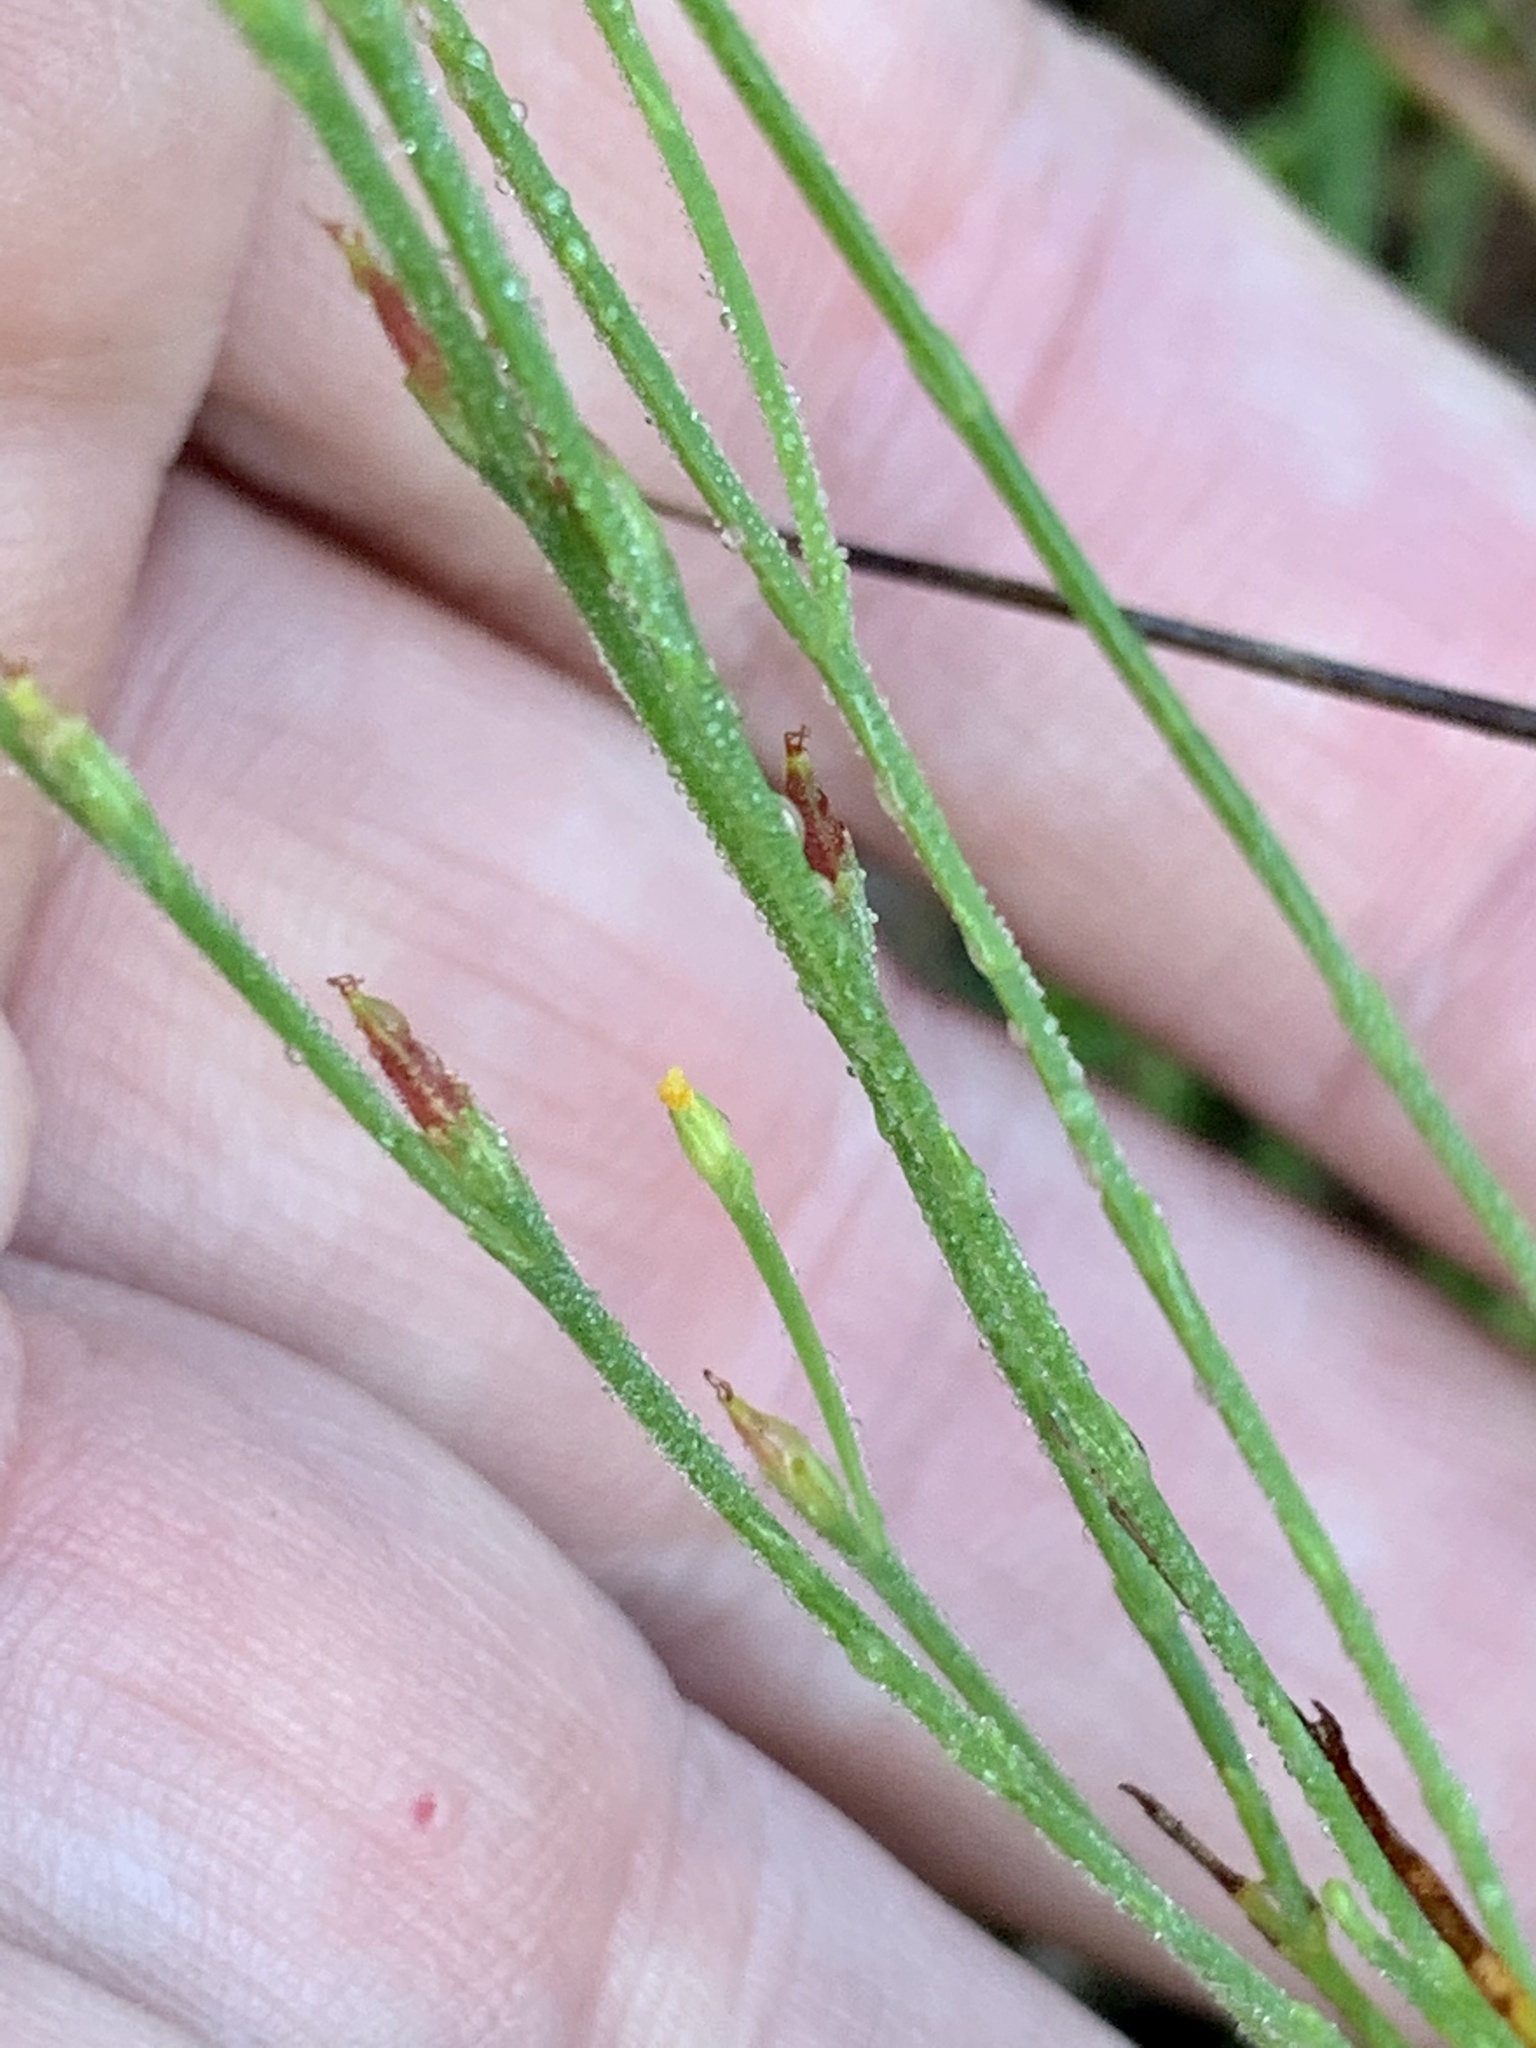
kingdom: Plantae
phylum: Tracheophyta
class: Magnoliopsida
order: Malpighiales
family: Hypericaceae
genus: Hypericum
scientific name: Hypericum gentianoides
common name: Gentian-leaved st. john's-wort
